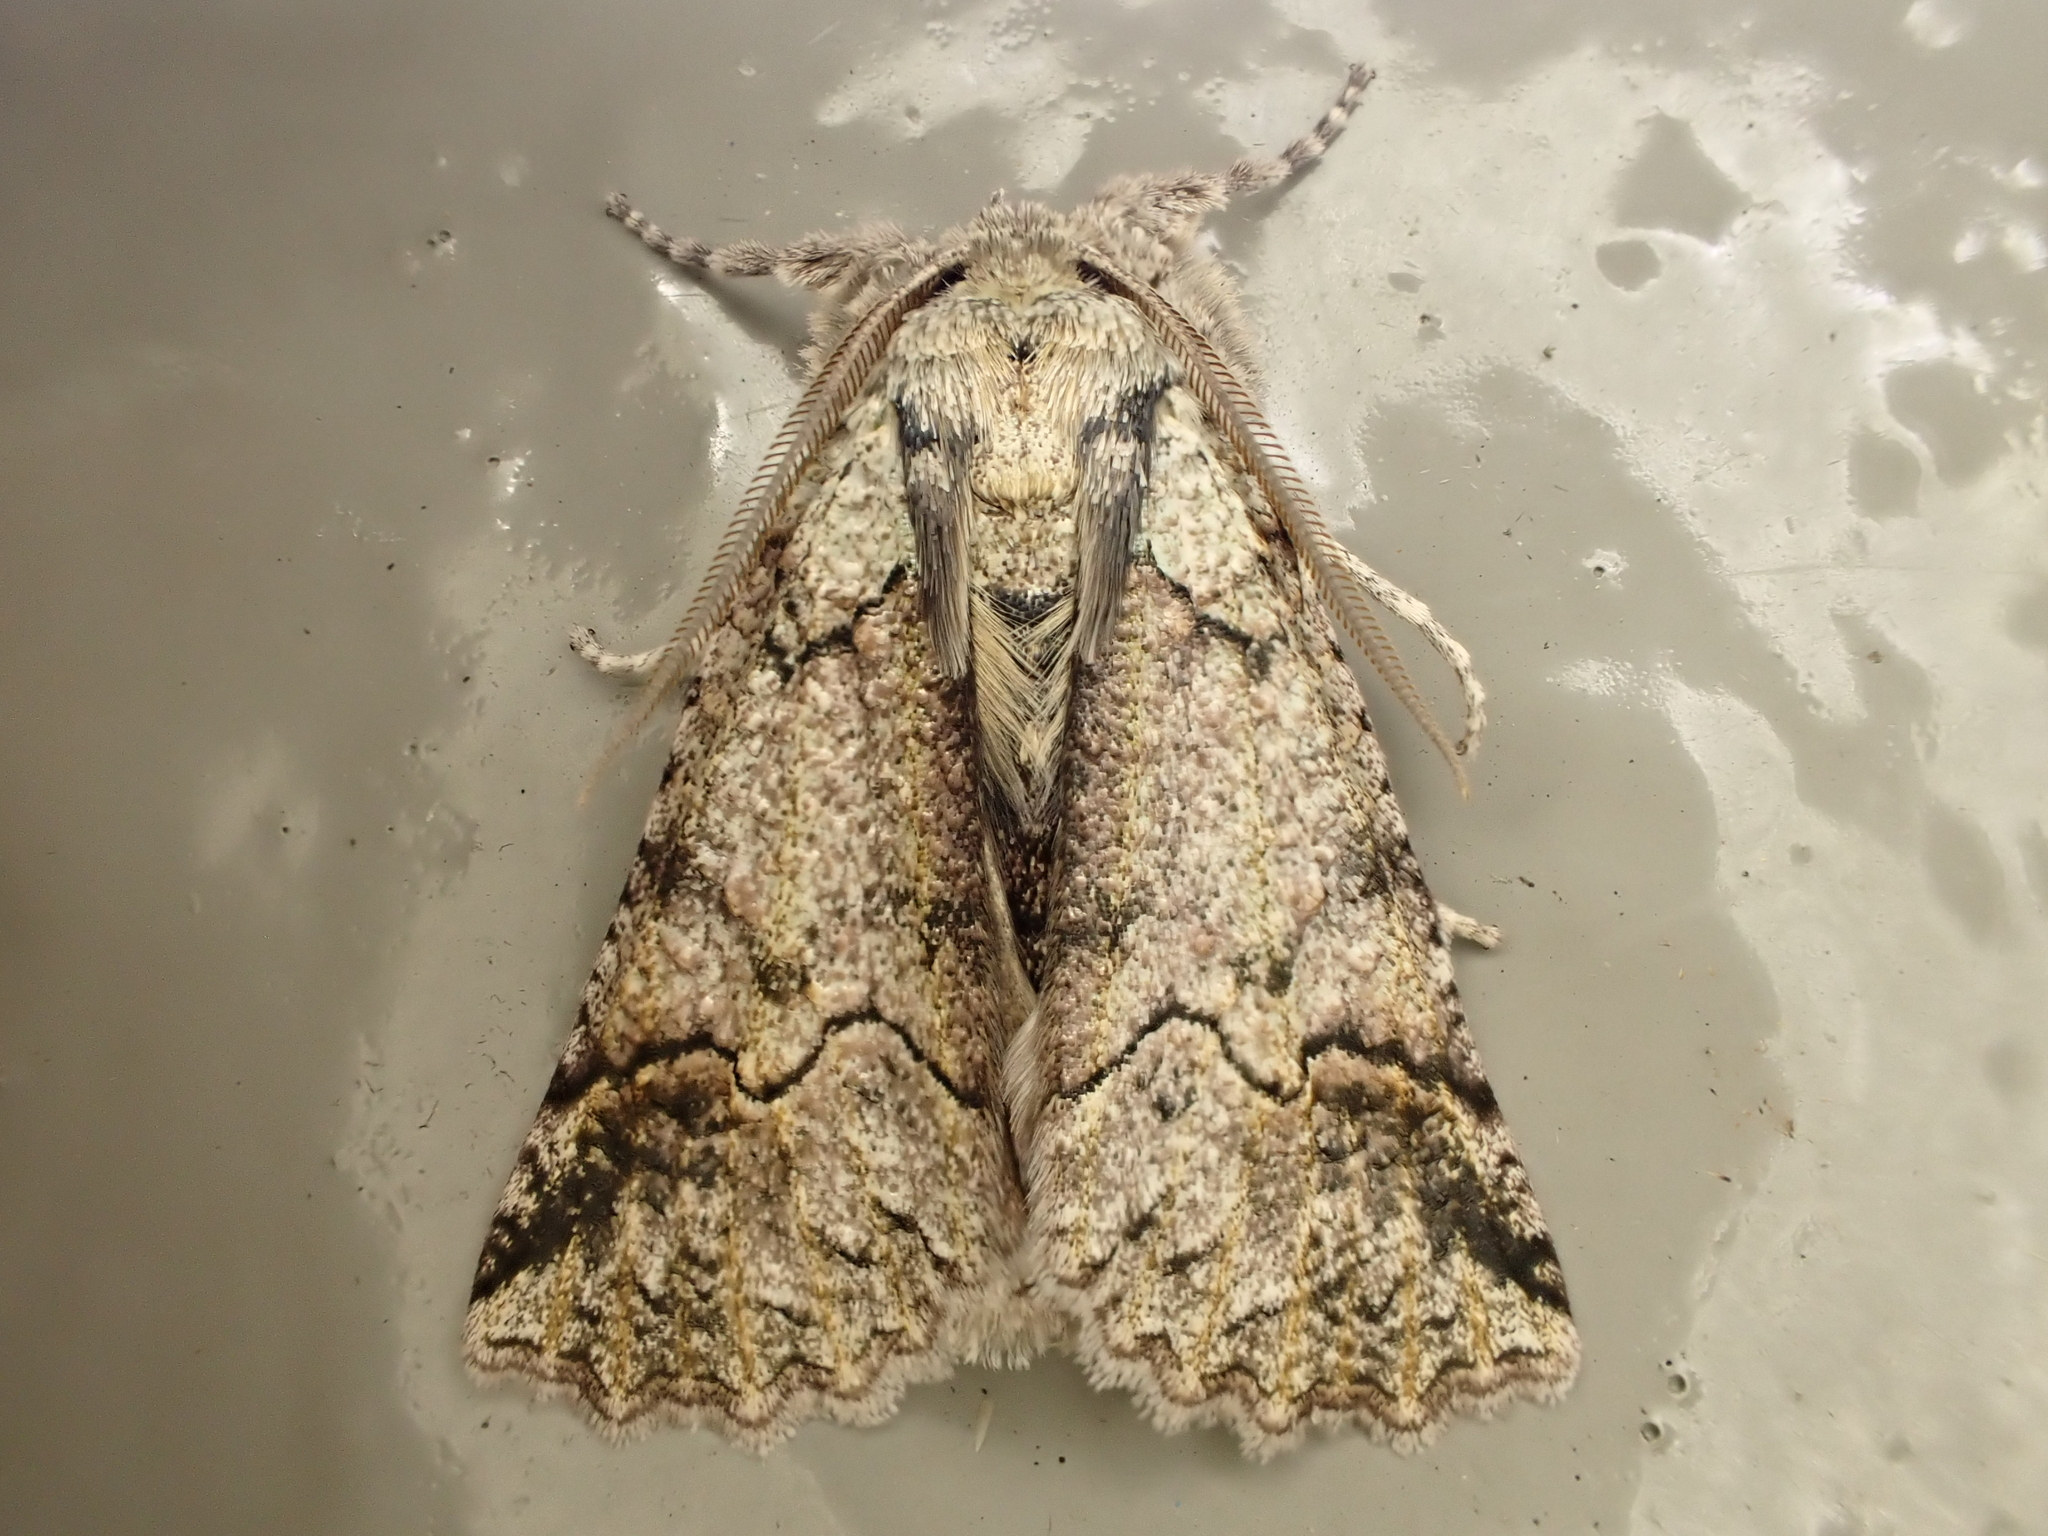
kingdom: Animalia
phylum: Arthropoda
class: Insecta
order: Lepidoptera
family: Geometridae
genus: Declana
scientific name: Declana floccosa
